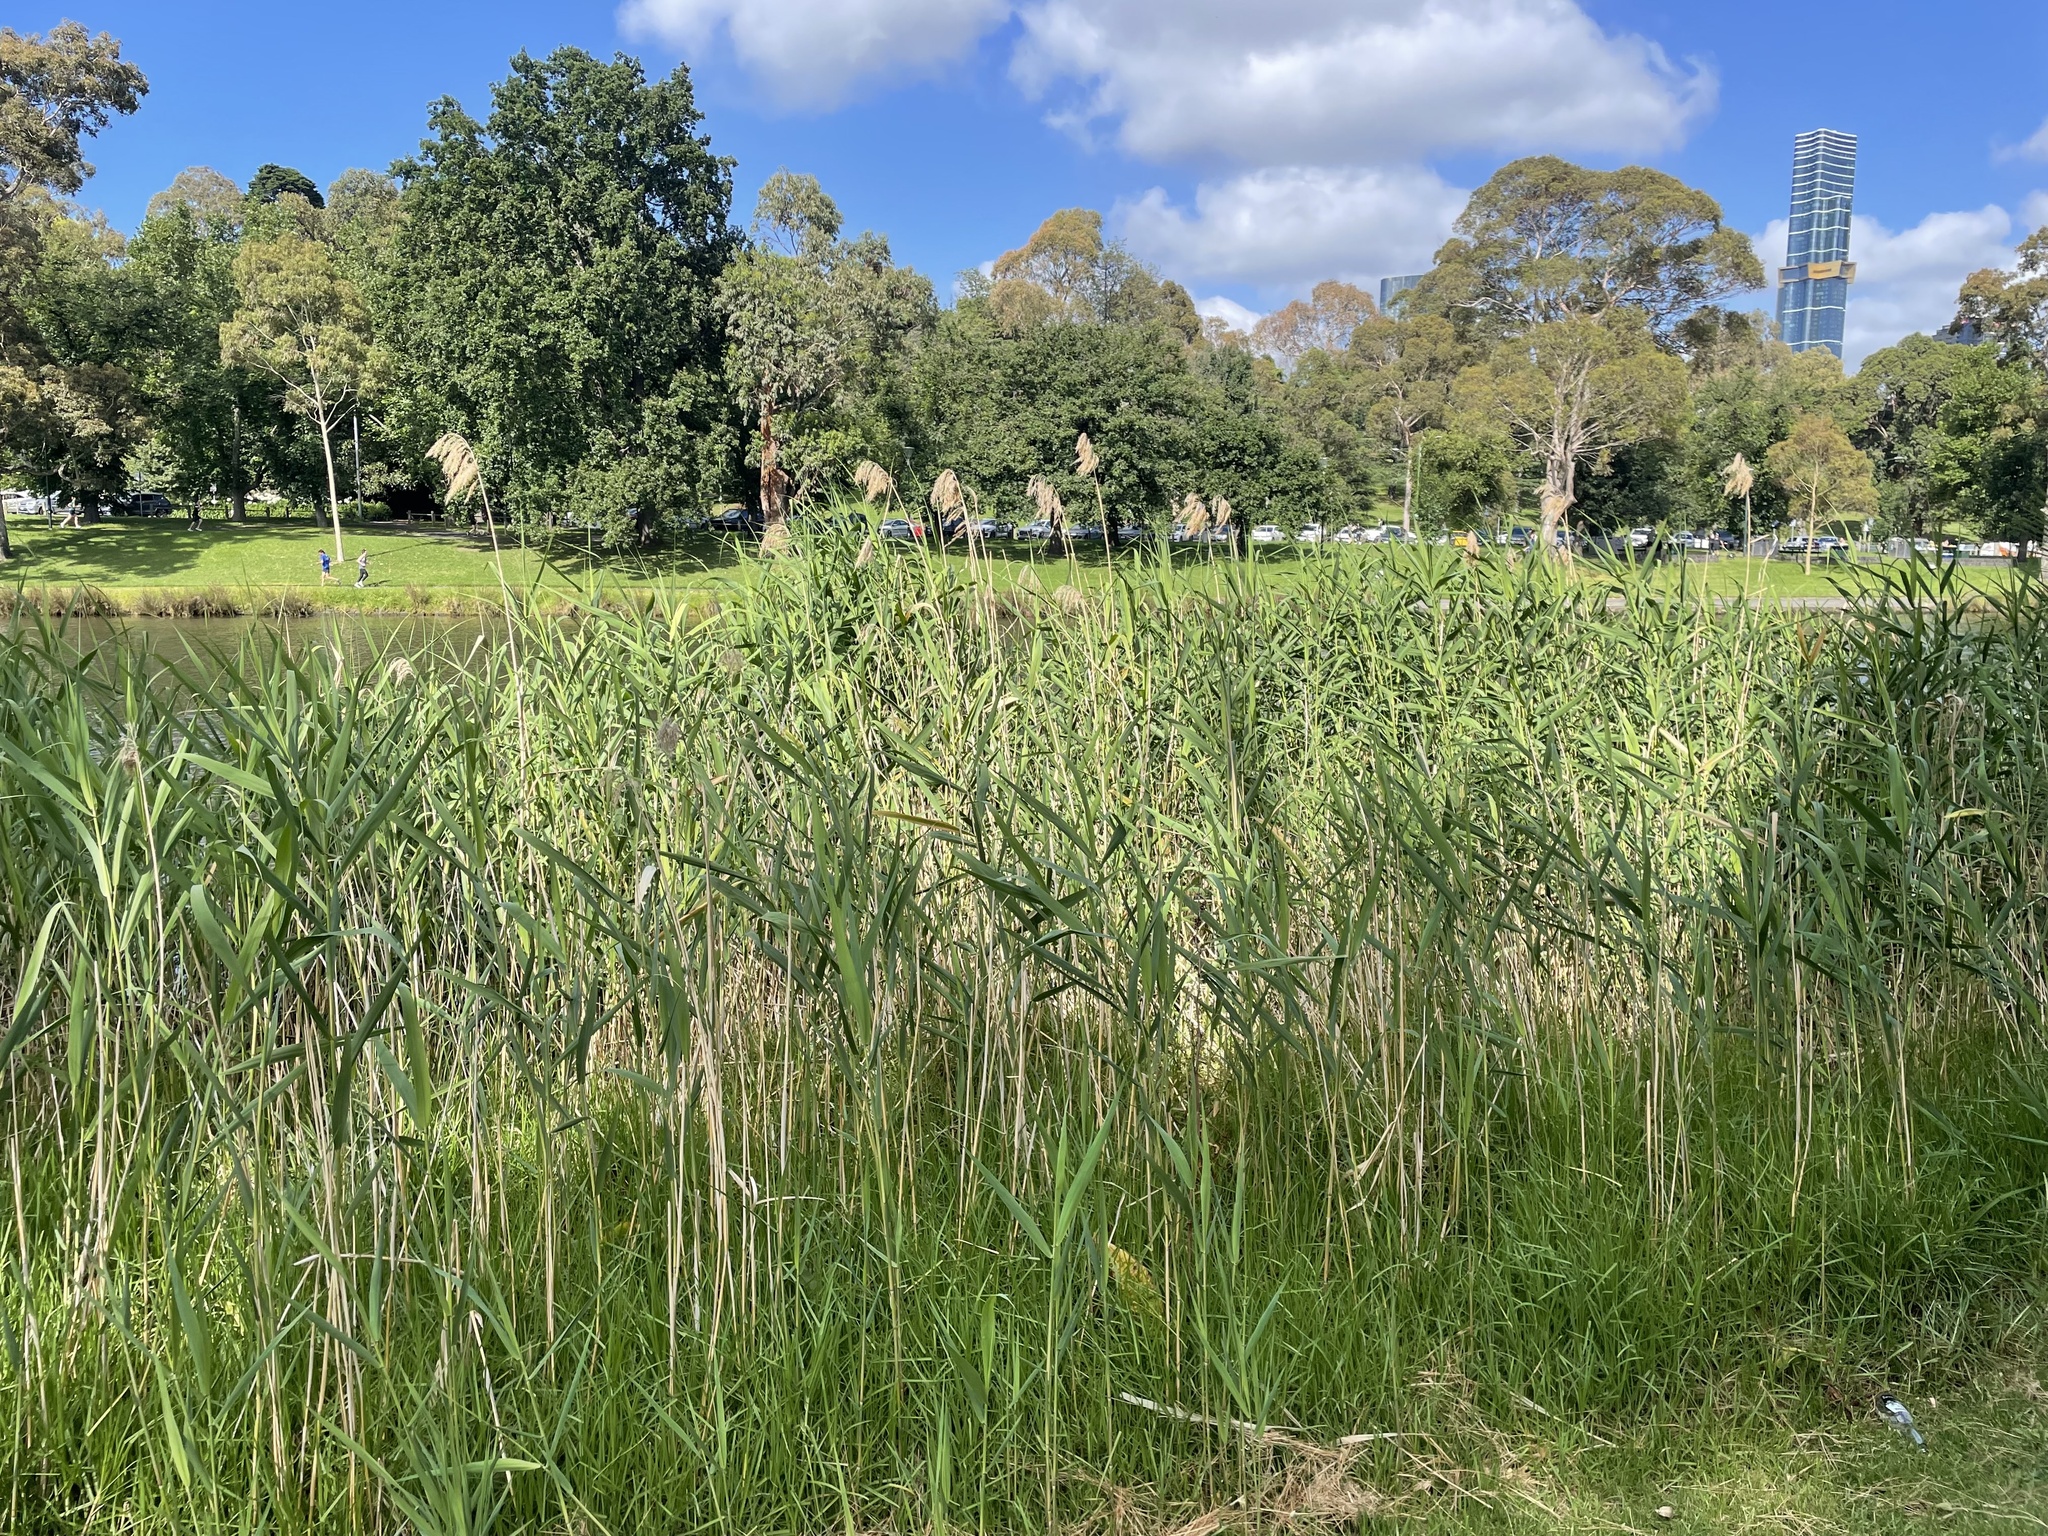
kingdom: Plantae
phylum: Tracheophyta
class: Liliopsida
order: Poales
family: Poaceae
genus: Phragmites
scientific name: Phragmites australis
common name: Common reed
